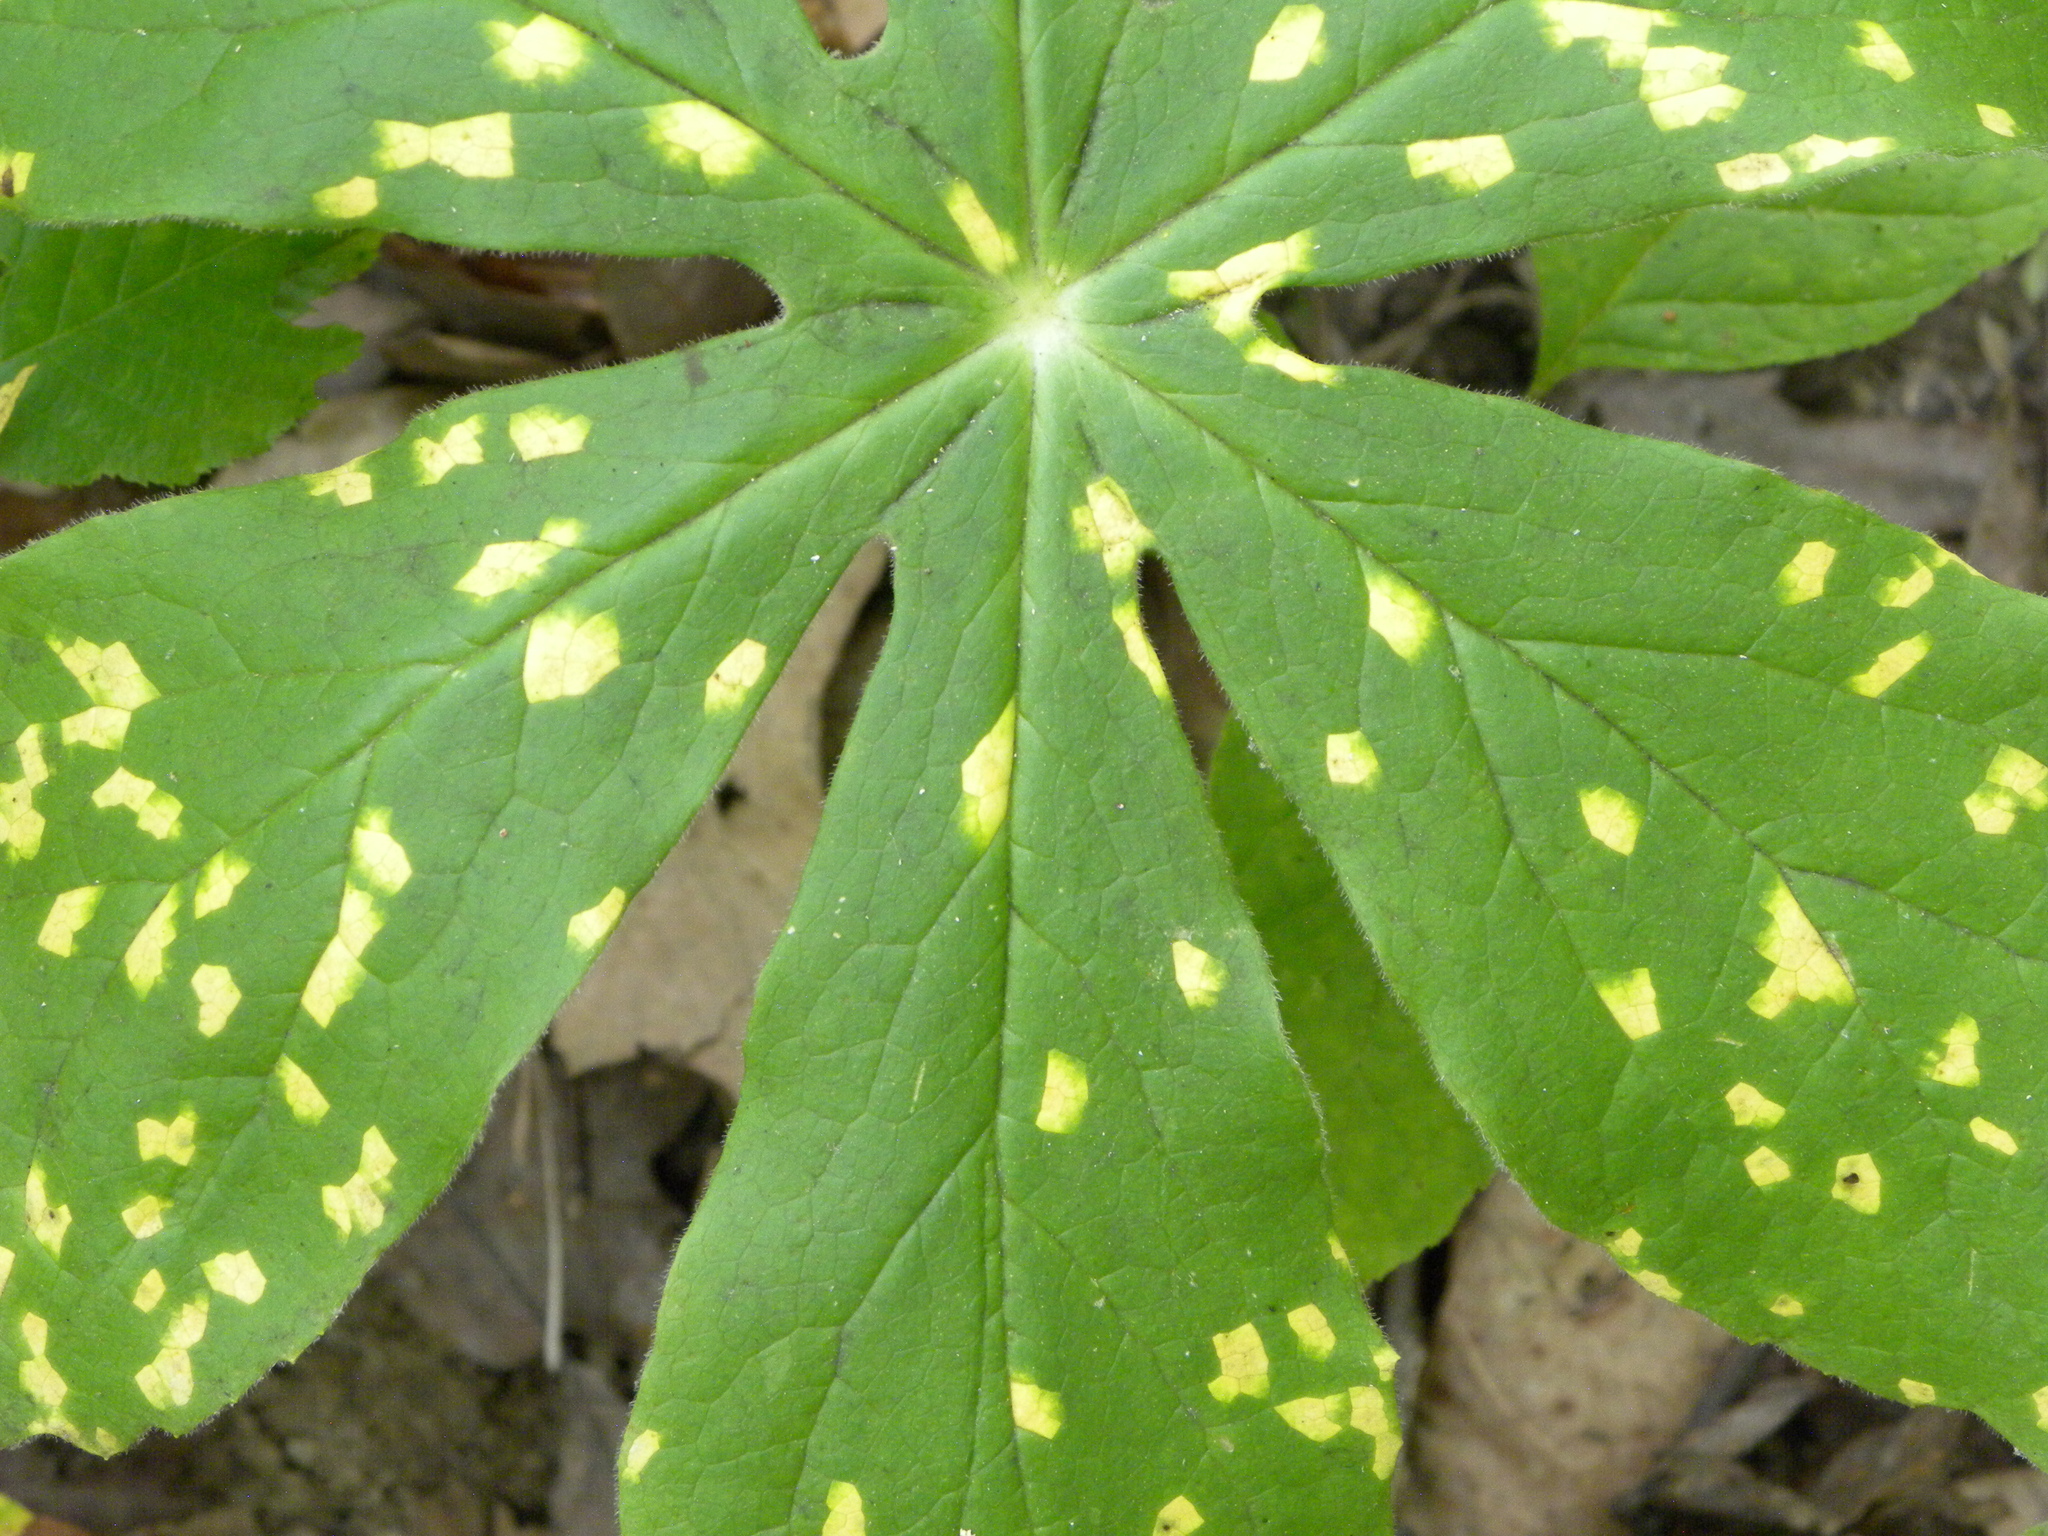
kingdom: Fungi
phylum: Basidiomycota
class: Pucciniomycetes
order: Pucciniales
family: Pucciniaceae
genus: Puccinia
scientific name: Puccinia podophylli
